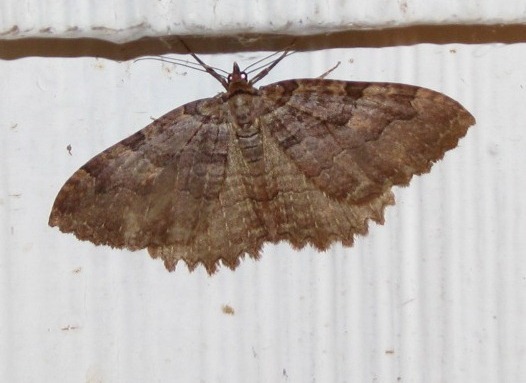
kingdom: Animalia
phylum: Arthropoda
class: Insecta
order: Lepidoptera
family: Geometridae
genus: Triphosa
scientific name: Triphosa haesitata
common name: Tissue moth
